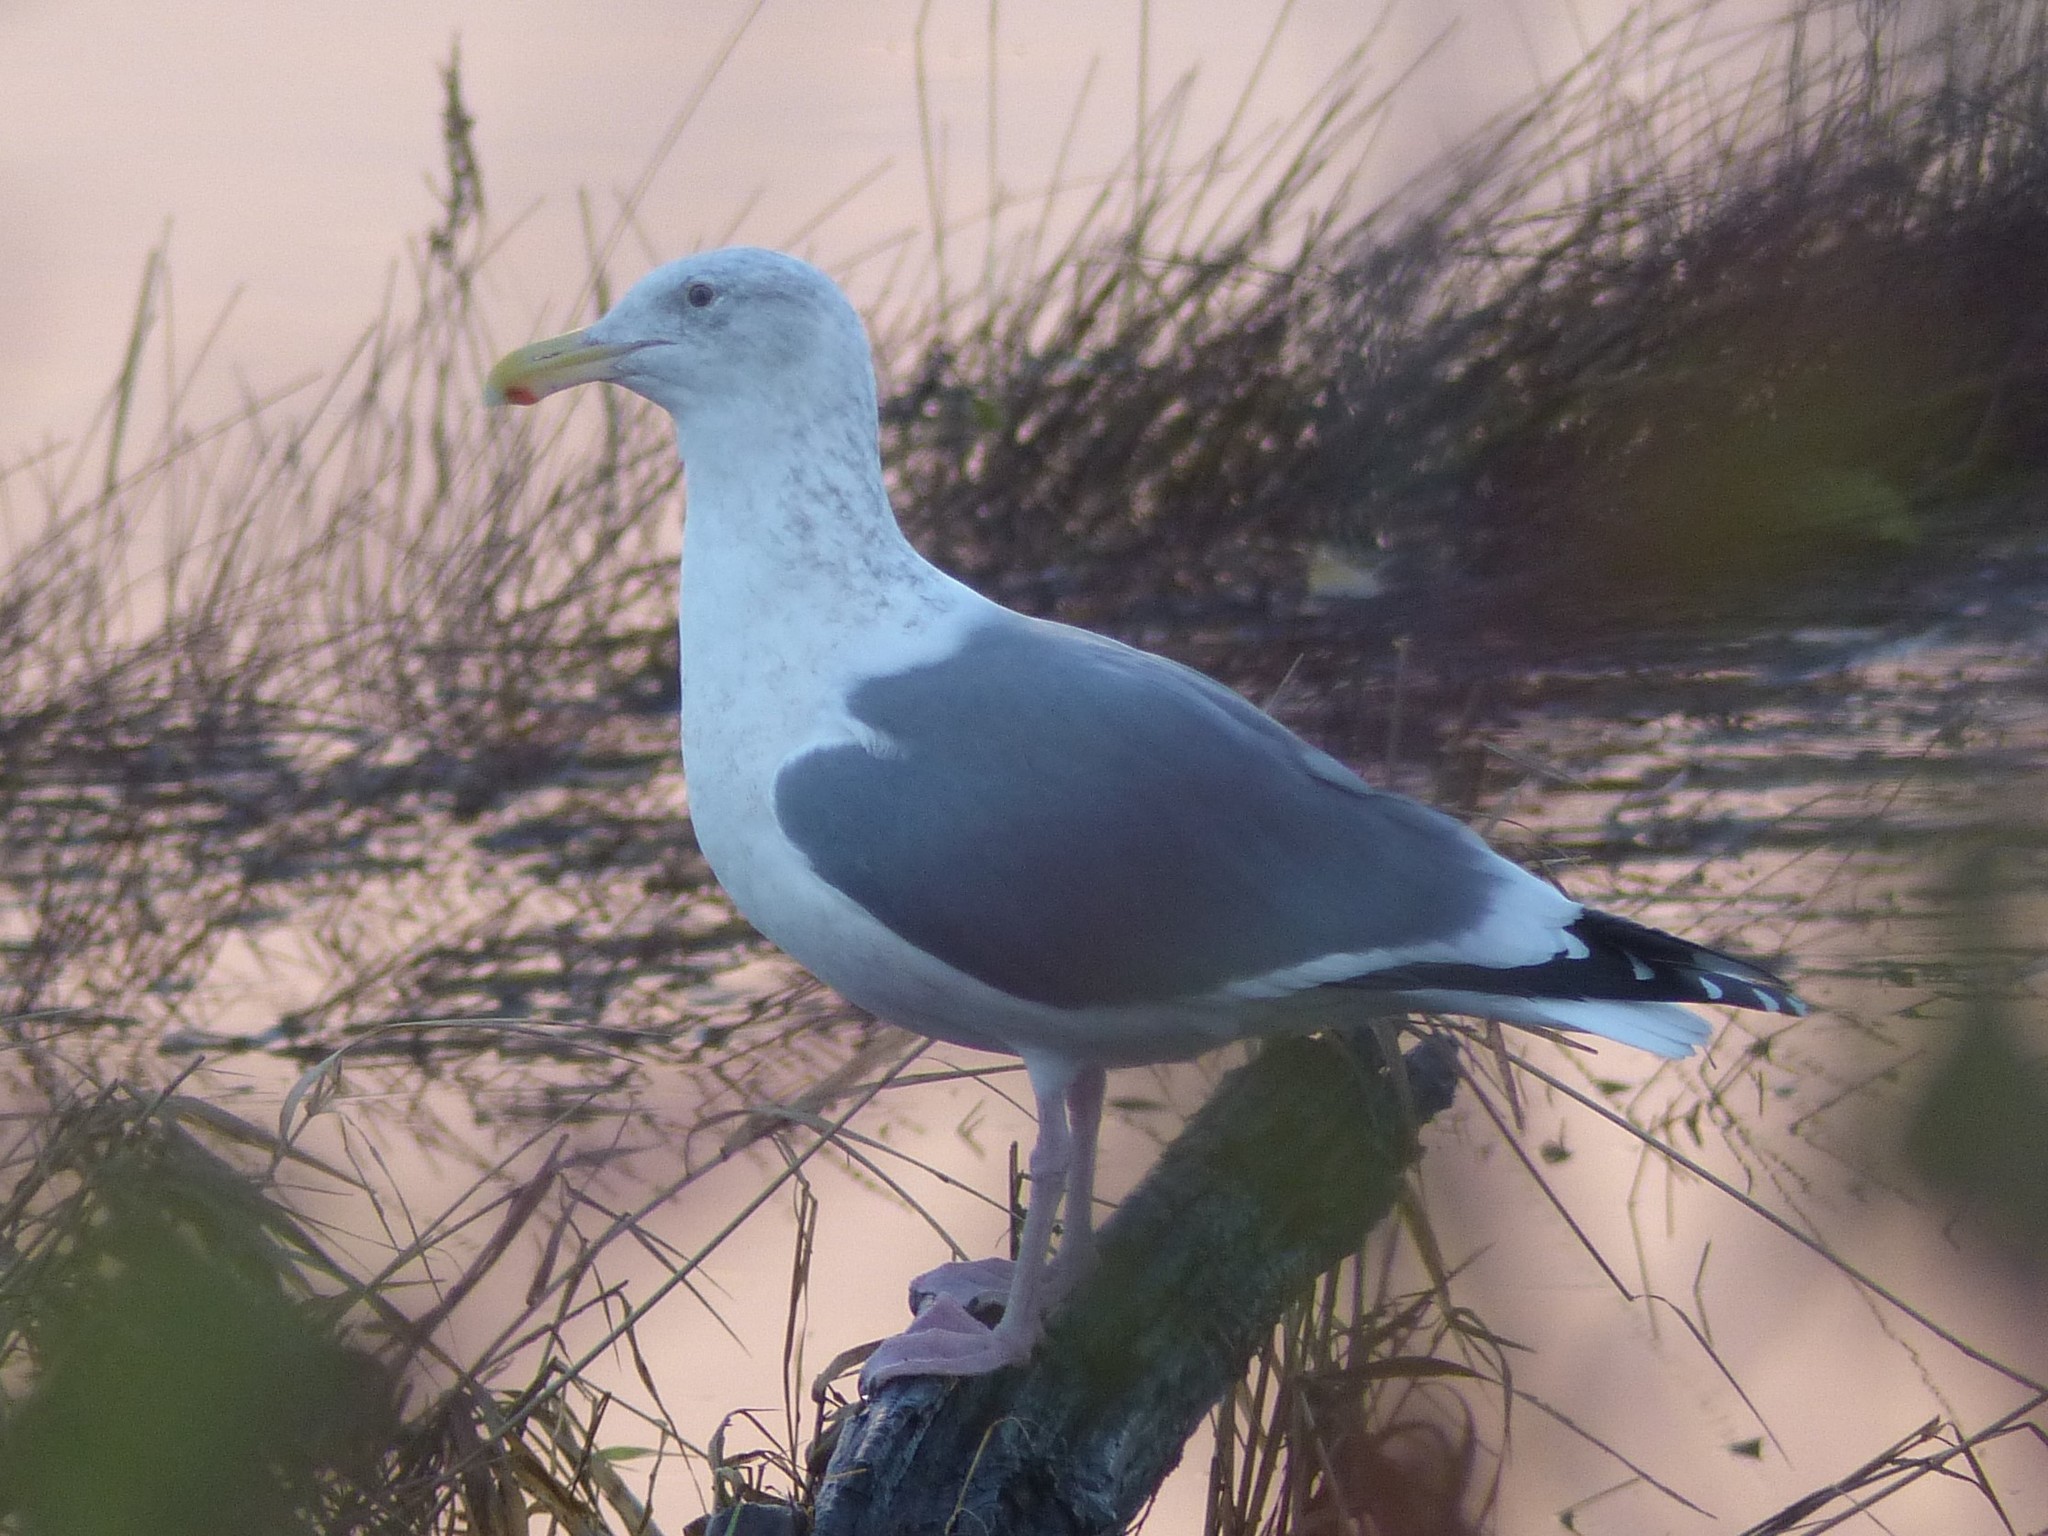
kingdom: Animalia
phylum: Chordata
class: Aves
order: Charadriiformes
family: Laridae
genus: Larus
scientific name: Larus
